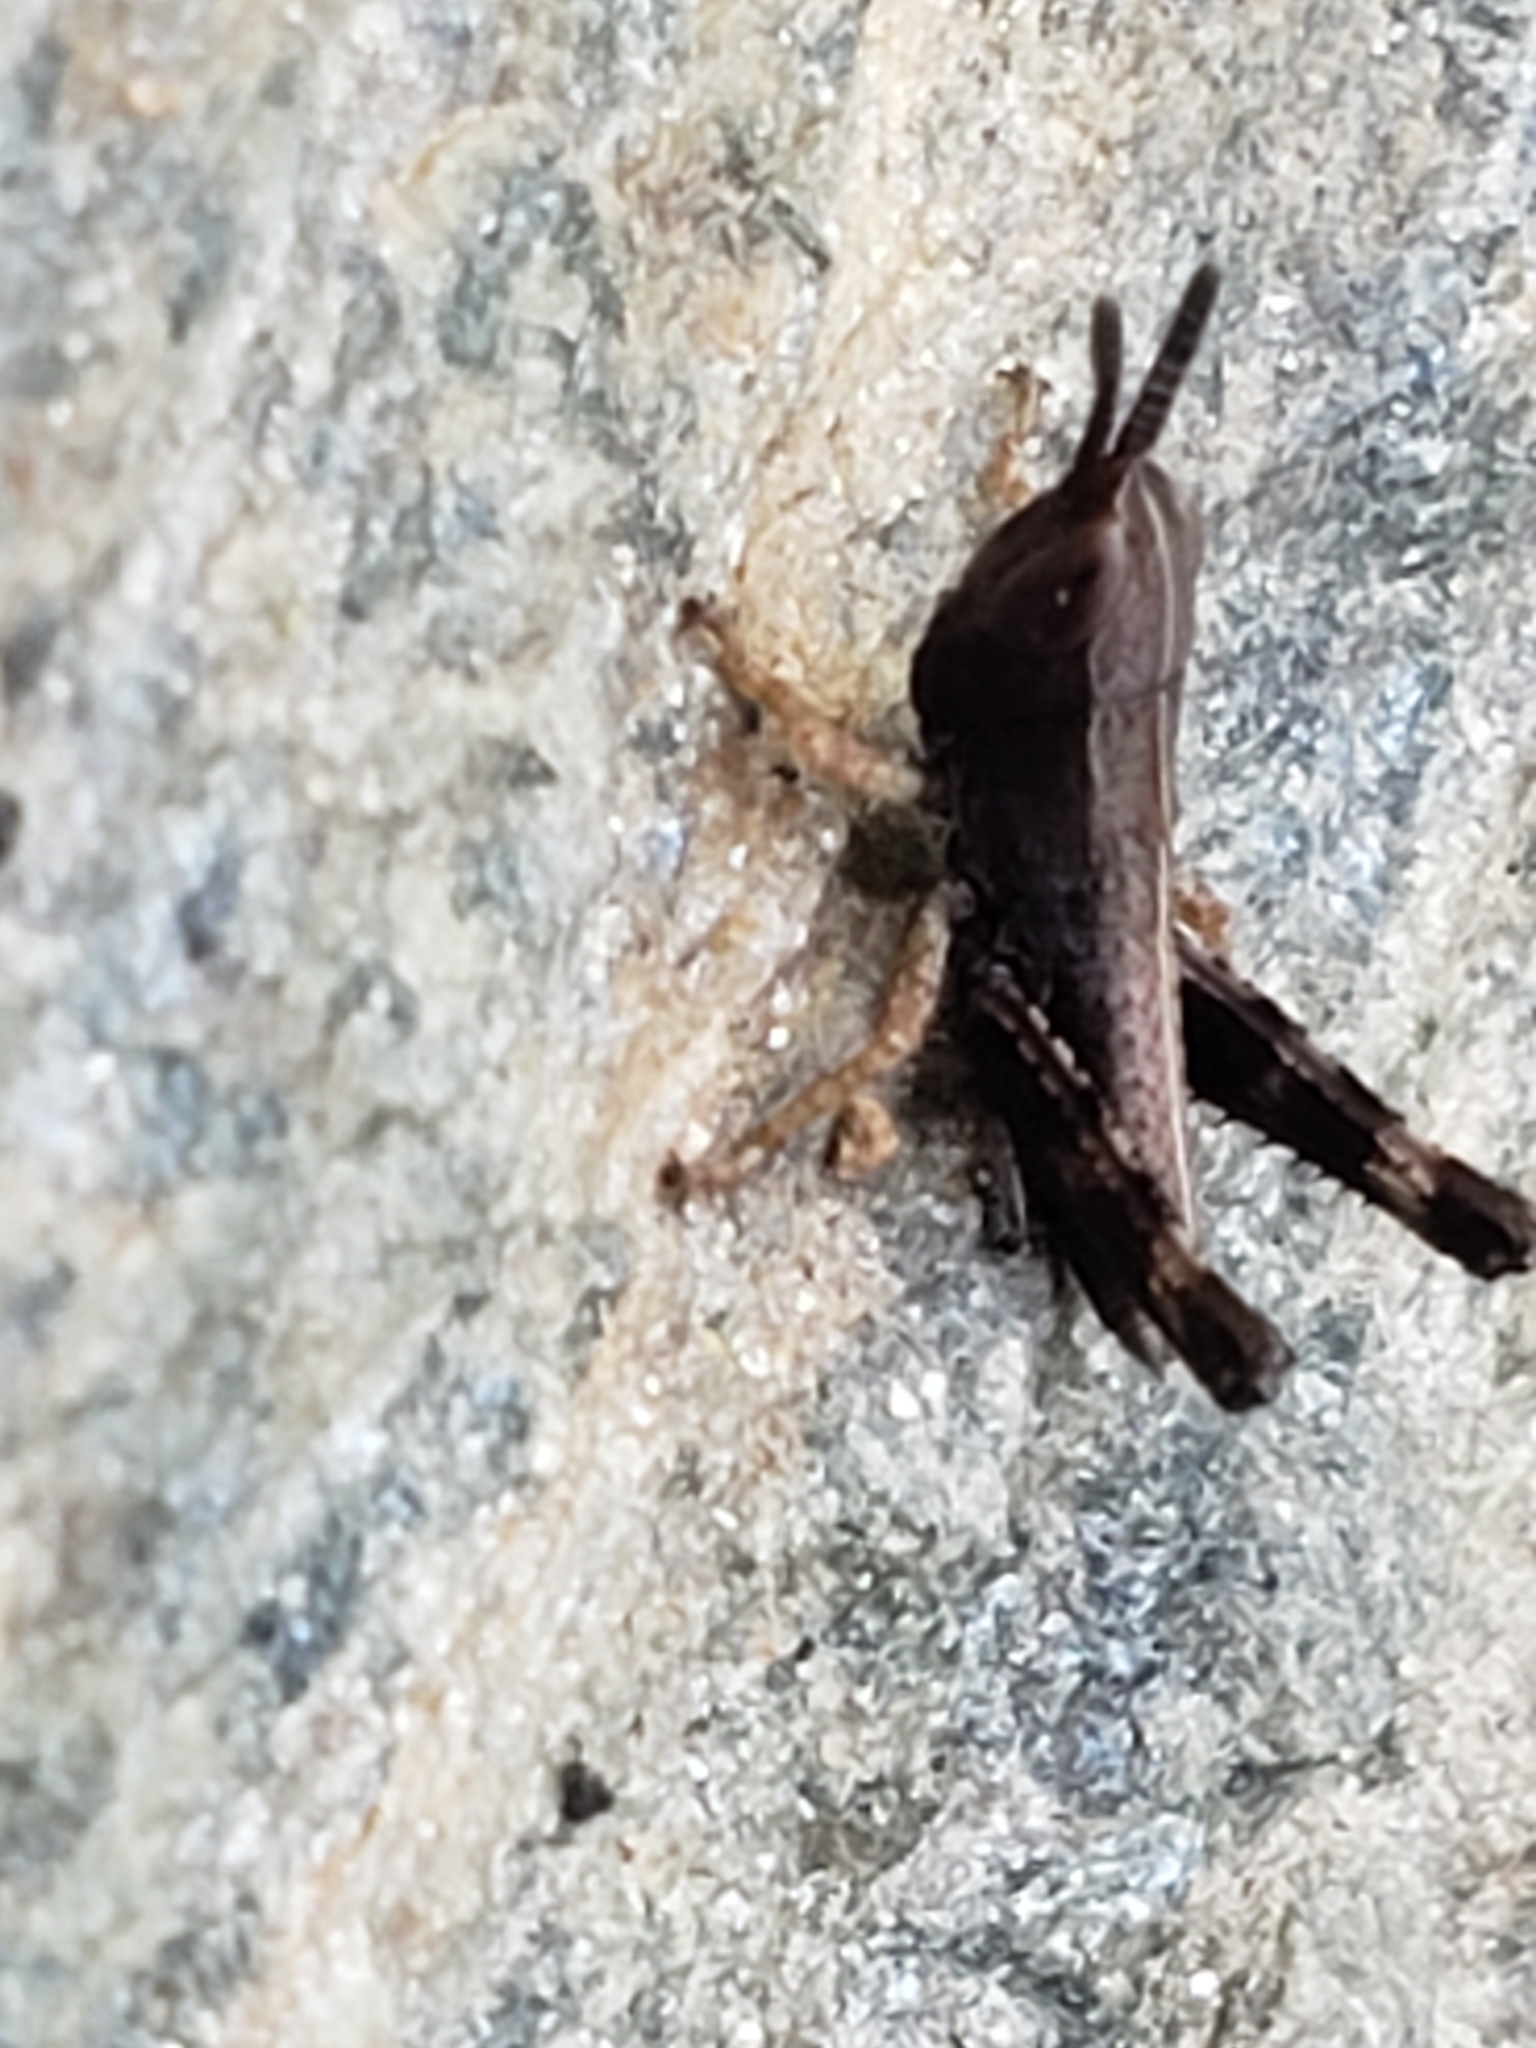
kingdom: Animalia
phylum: Arthropoda
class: Insecta
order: Orthoptera
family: Acrididae
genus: Dichromorpha
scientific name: Dichromorpha viridis
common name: Short-winged green grasshopper
